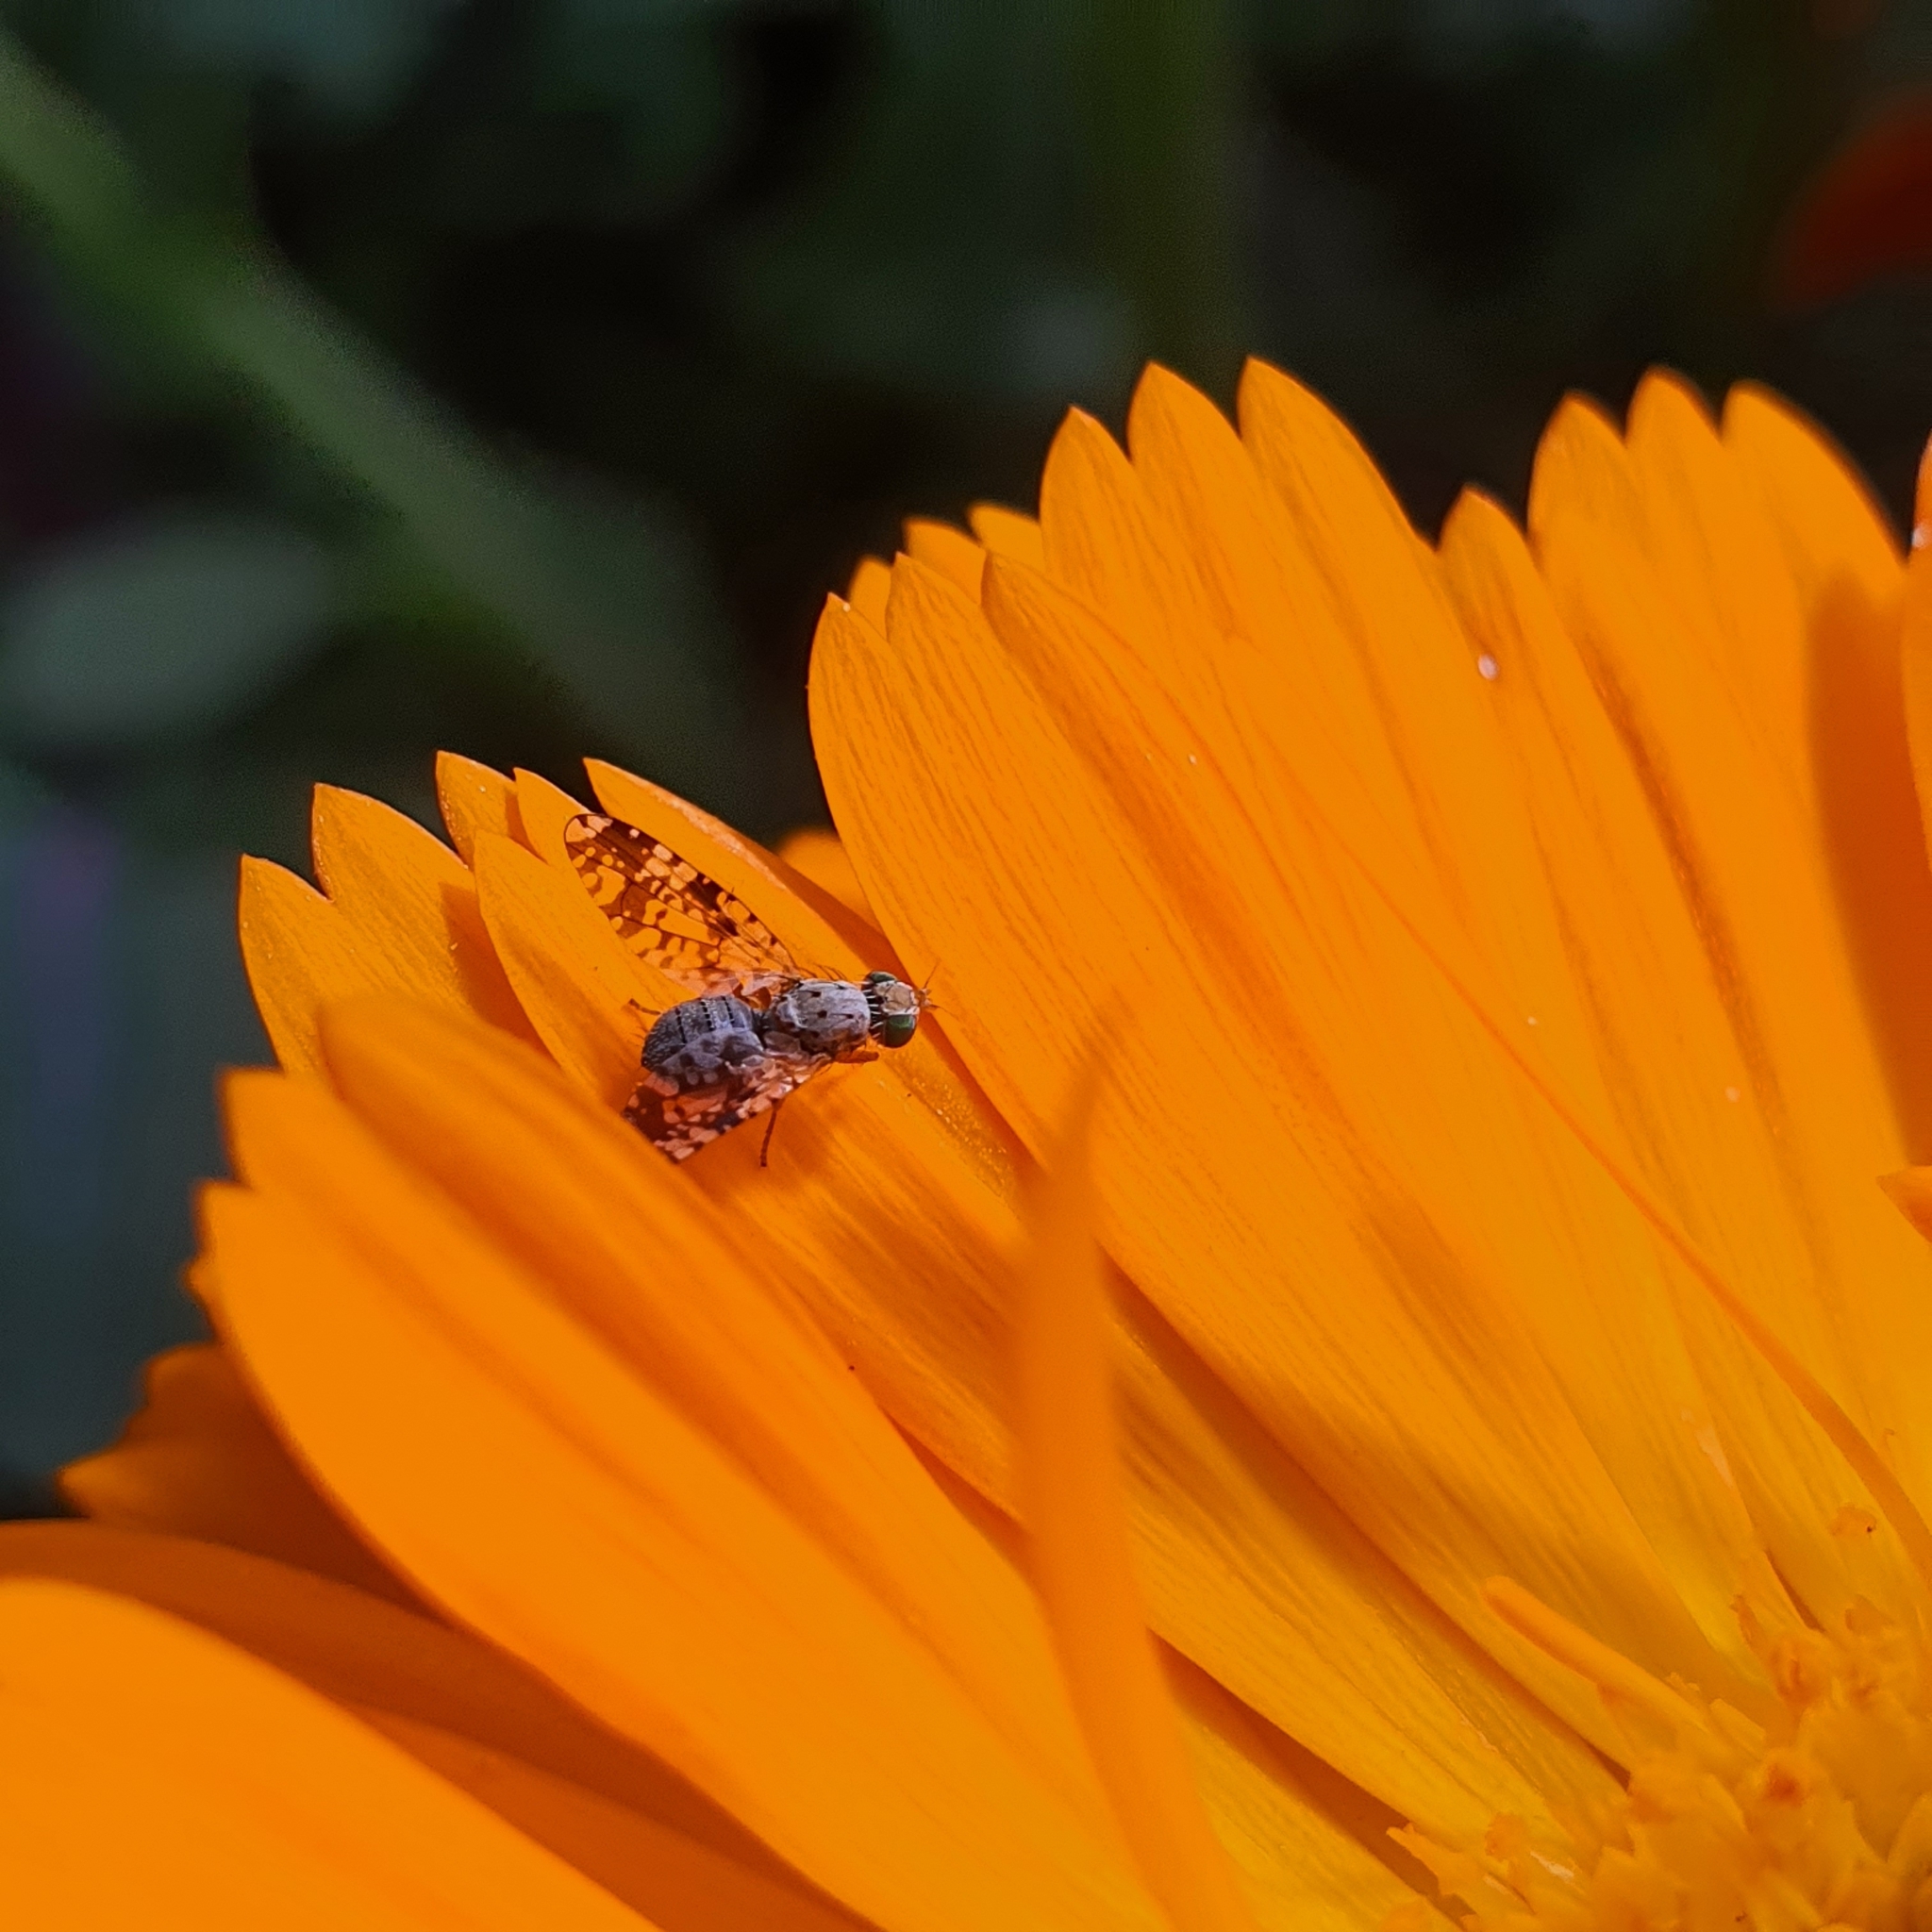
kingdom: Animalia
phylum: Arthropoda
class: Insecta
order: Diptera
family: Tephritidae
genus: Austrotephritis
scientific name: Austrotephritis
